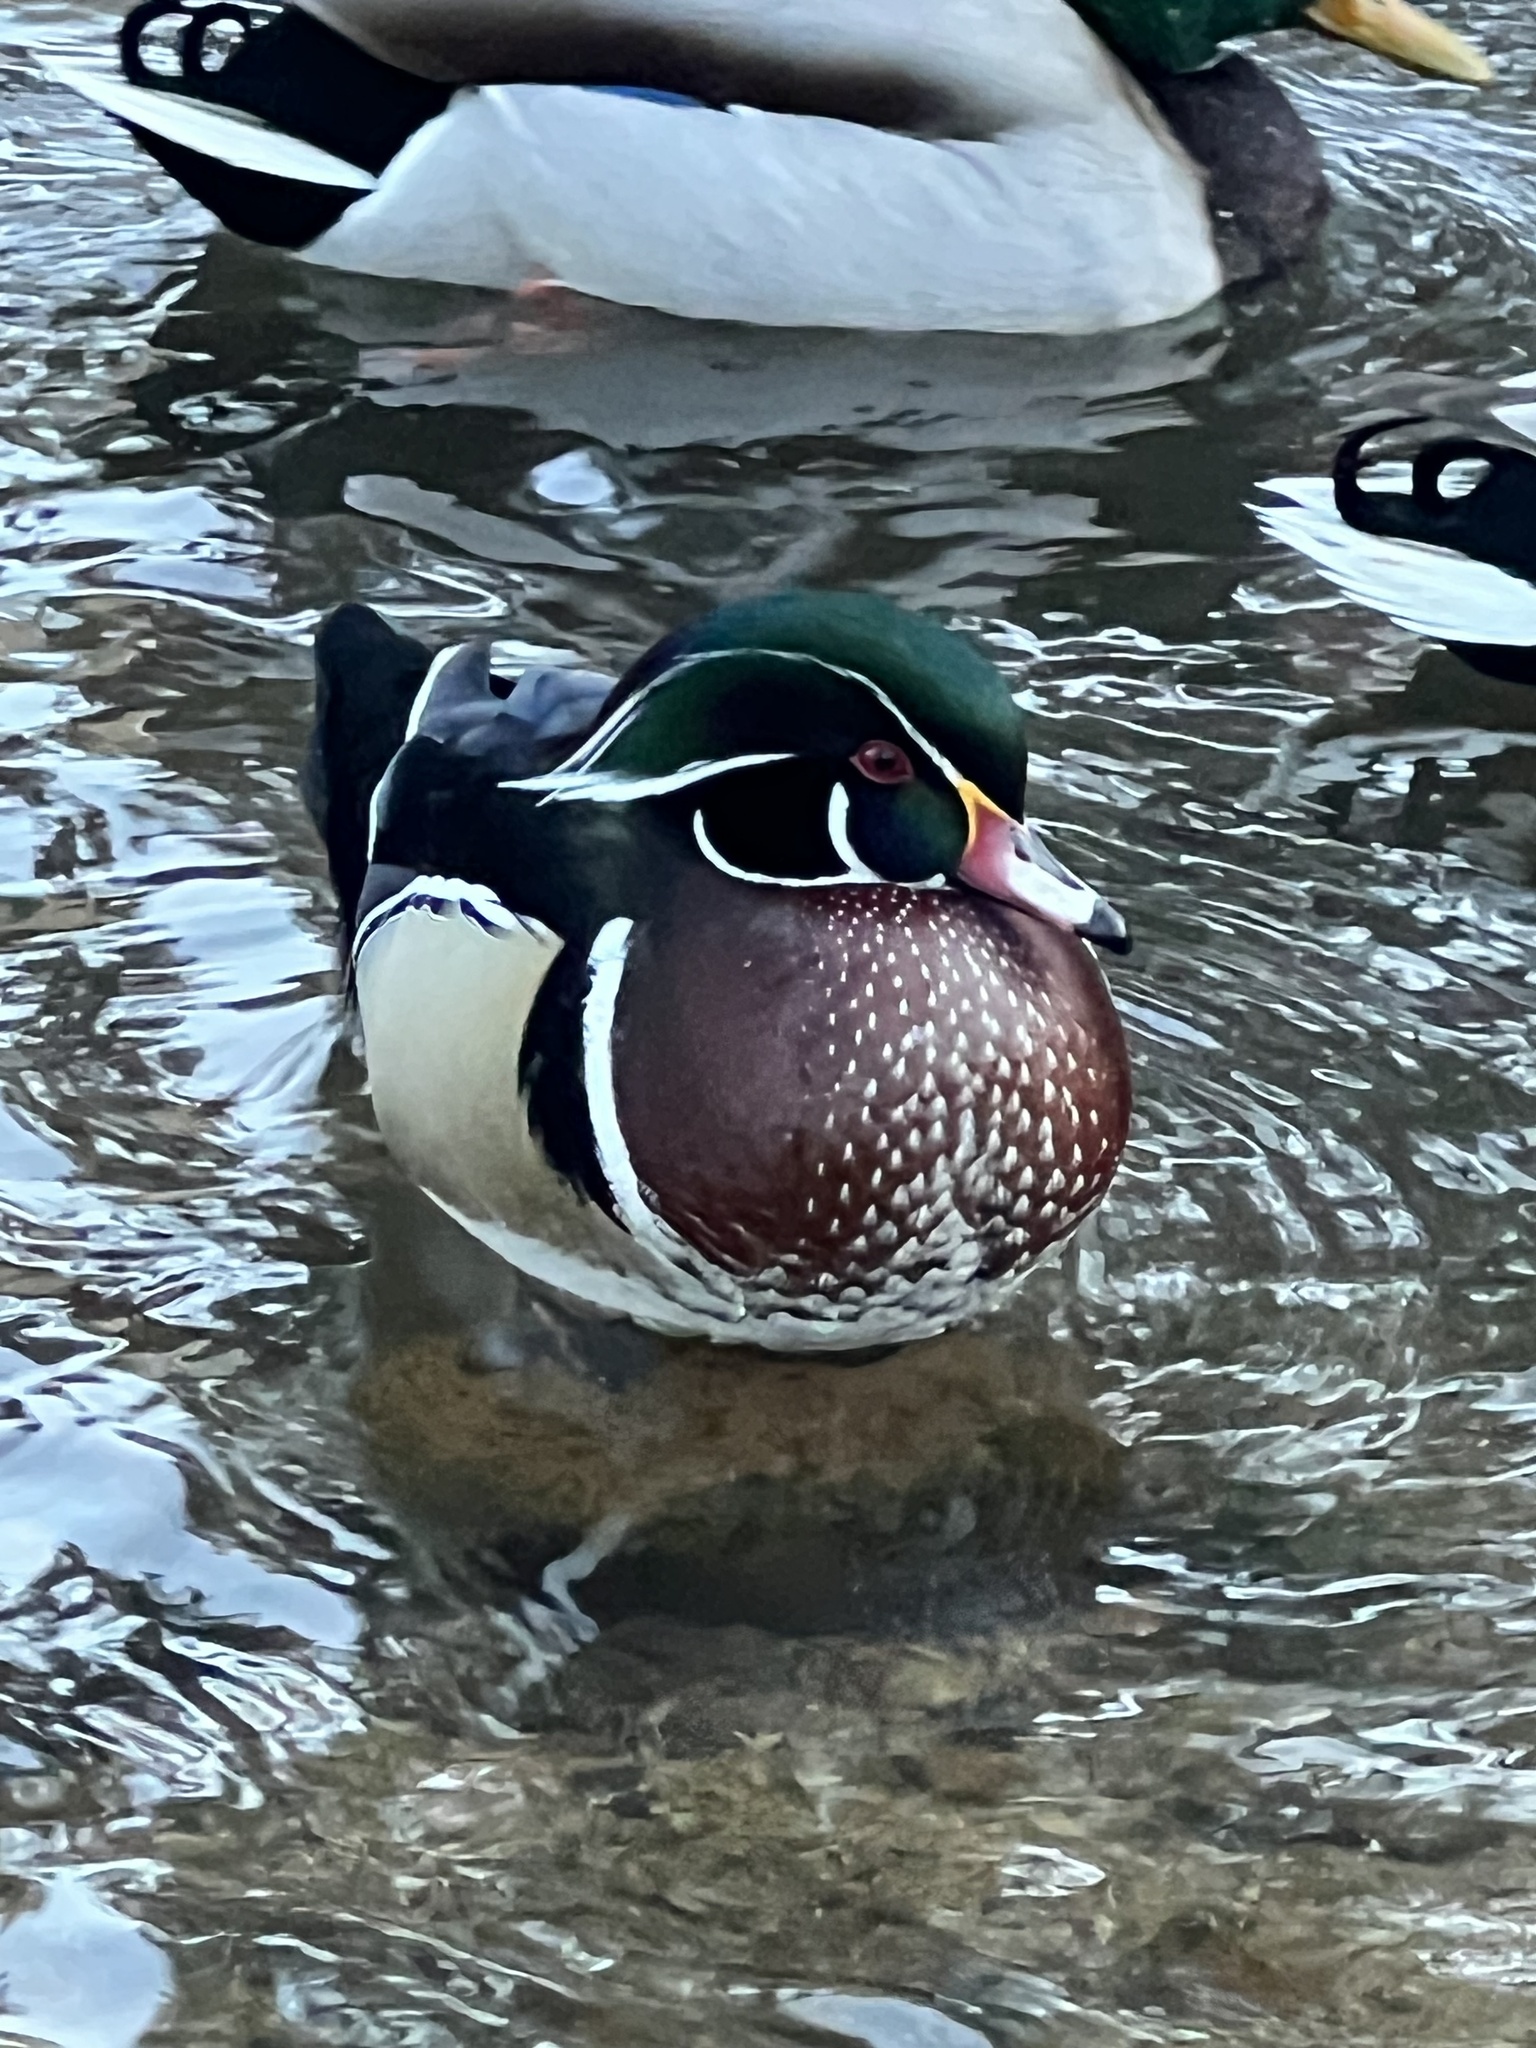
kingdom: Animalia
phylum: Chordata
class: Aves
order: Anseriformes
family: Anatidae
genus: Aix
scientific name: Aix sponsa
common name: Wood duck
